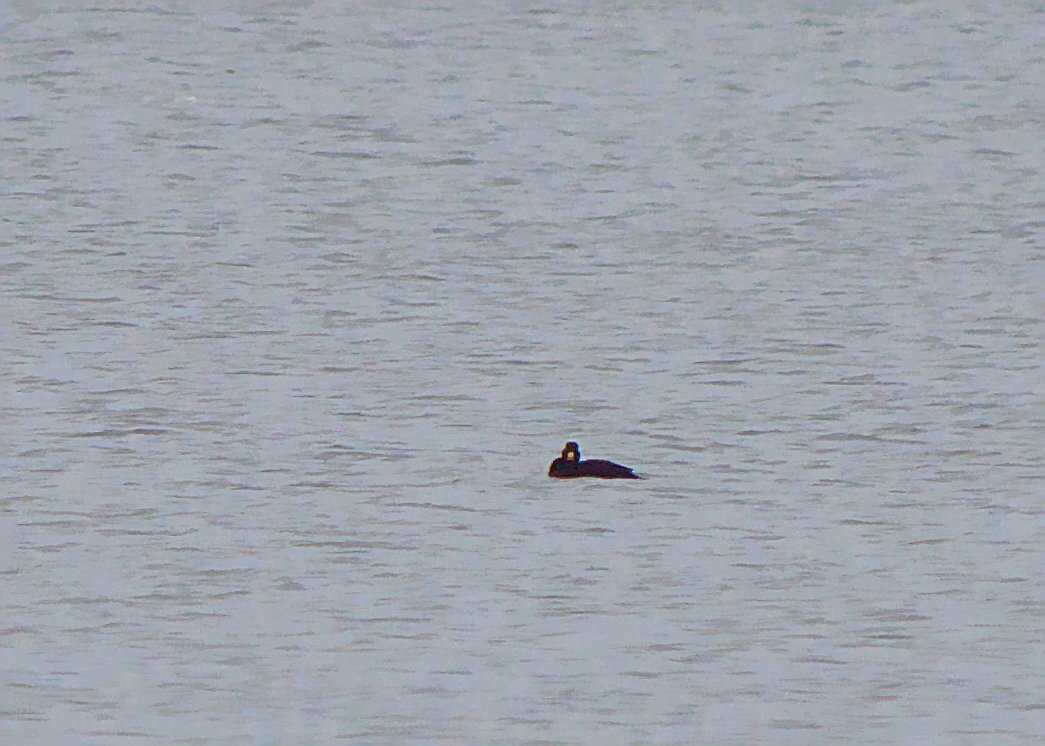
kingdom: Animalia
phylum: Chordata
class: Aves
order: Anseriformes
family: Anatidae
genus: Melanitta
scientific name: Melanitta americana
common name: Black scoter
